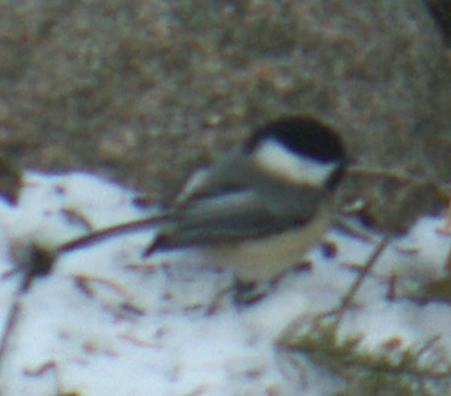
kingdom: Animalia
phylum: Chordata
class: Aves
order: Passeriformes
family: Paridae
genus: Poecile
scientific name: Poecile atricapillus
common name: Black-capped chickadee
